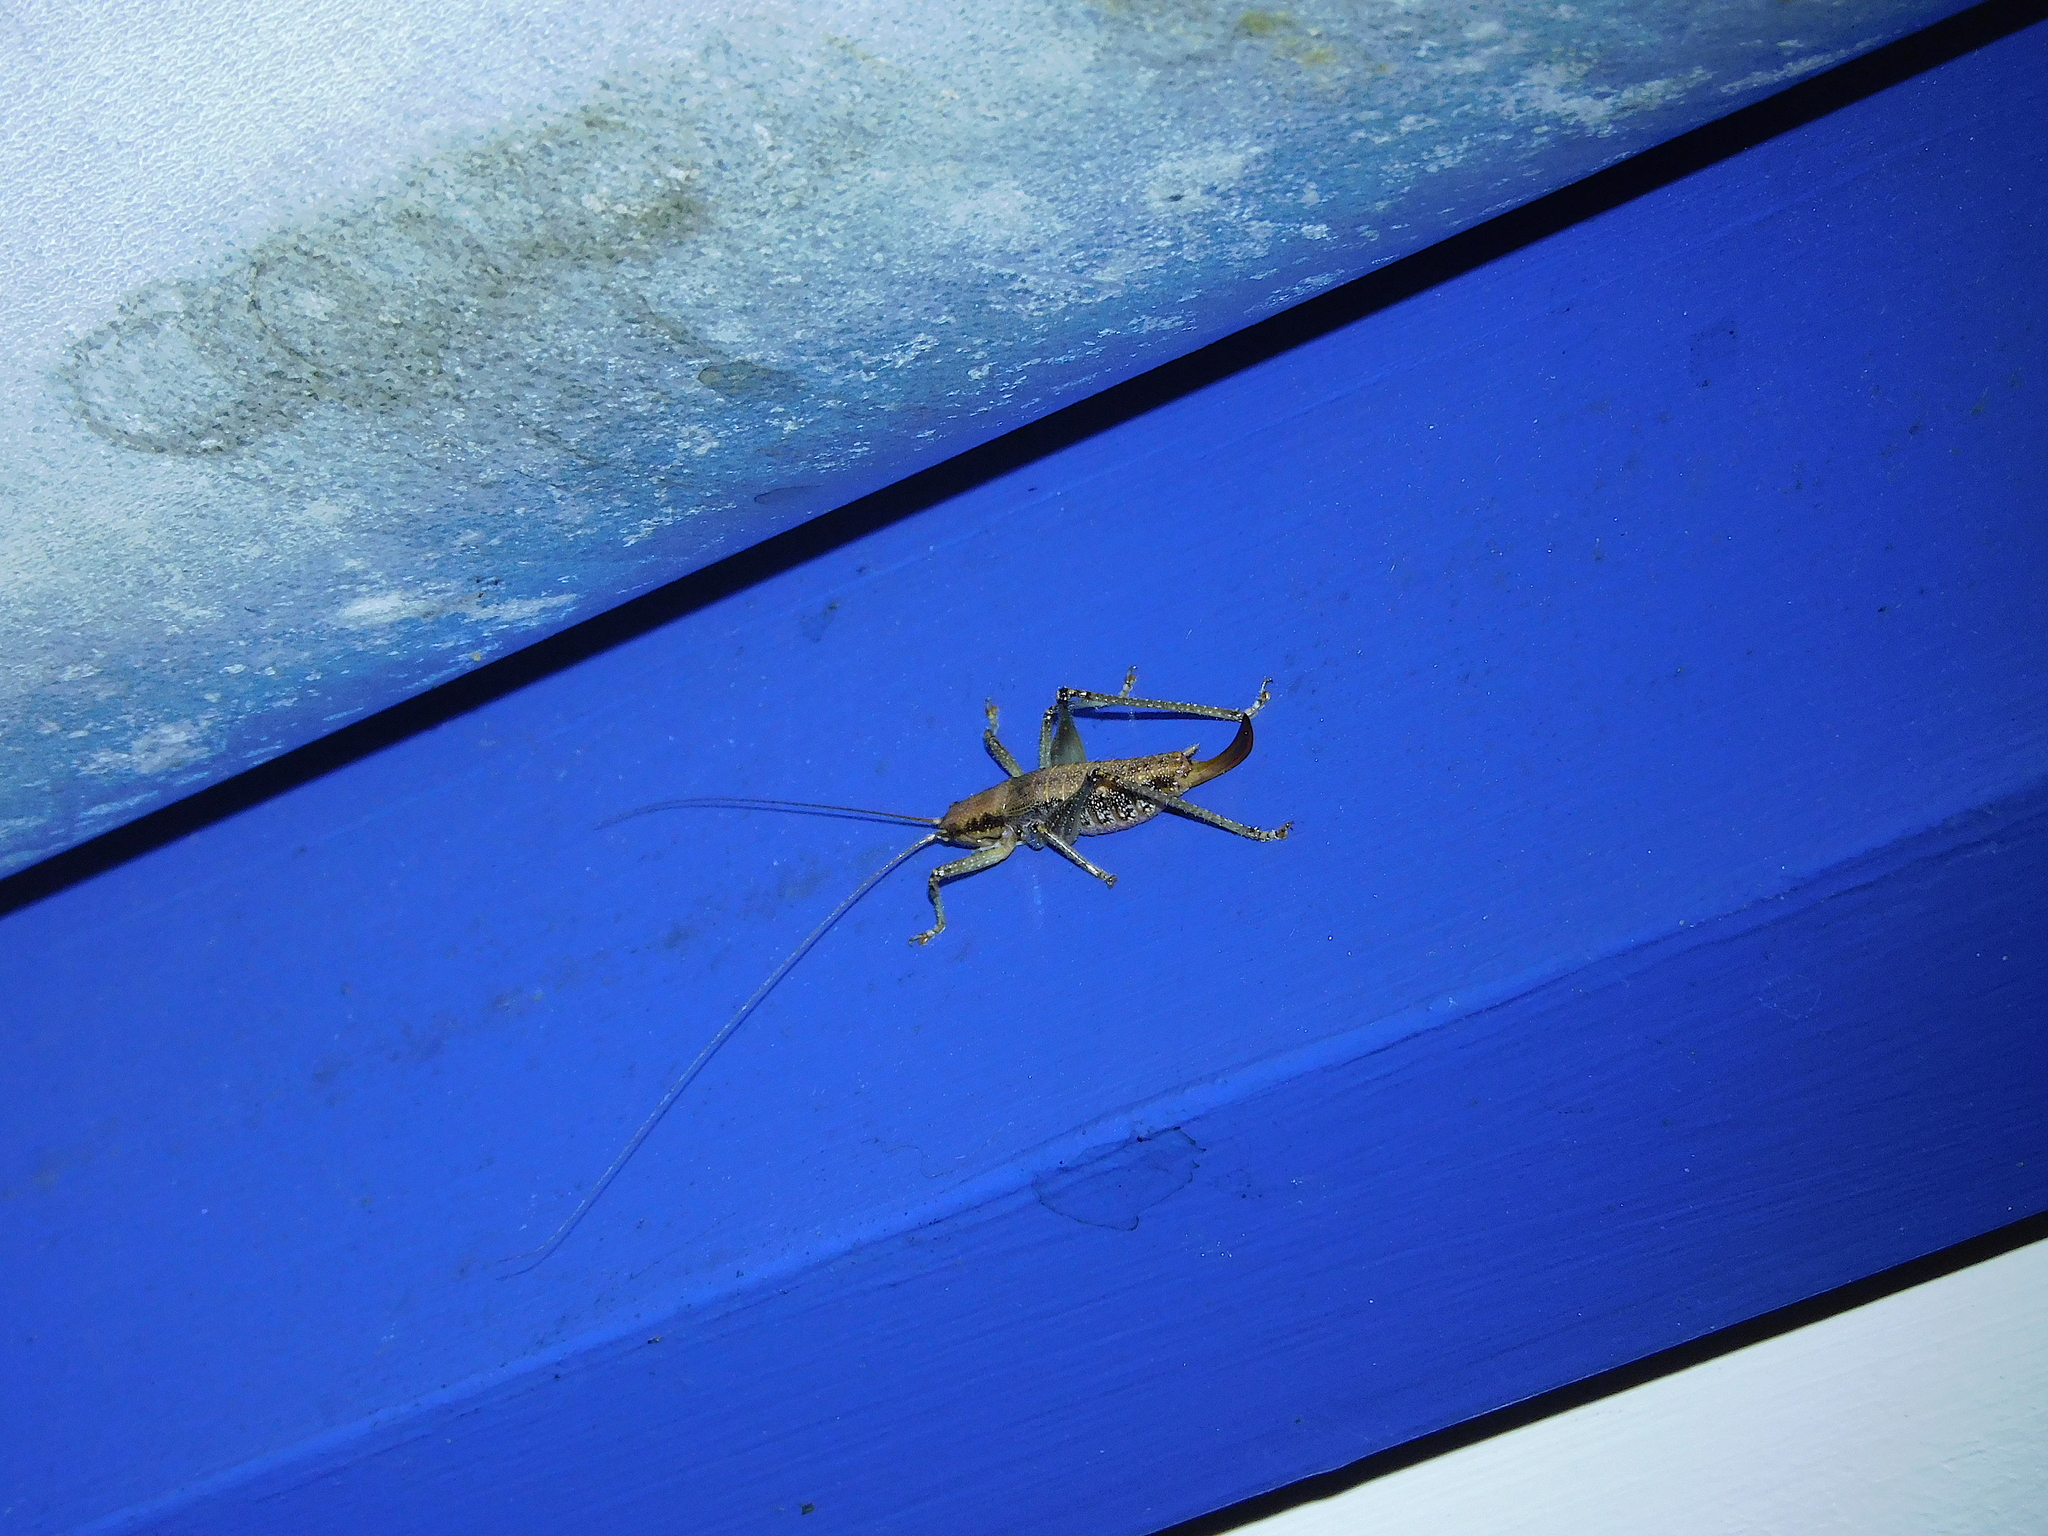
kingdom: Animalia
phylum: Arthropoda
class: Insecta
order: Orthoptera
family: Tettigoniidae
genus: Coptaspis
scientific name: Coptaspis lateralis
